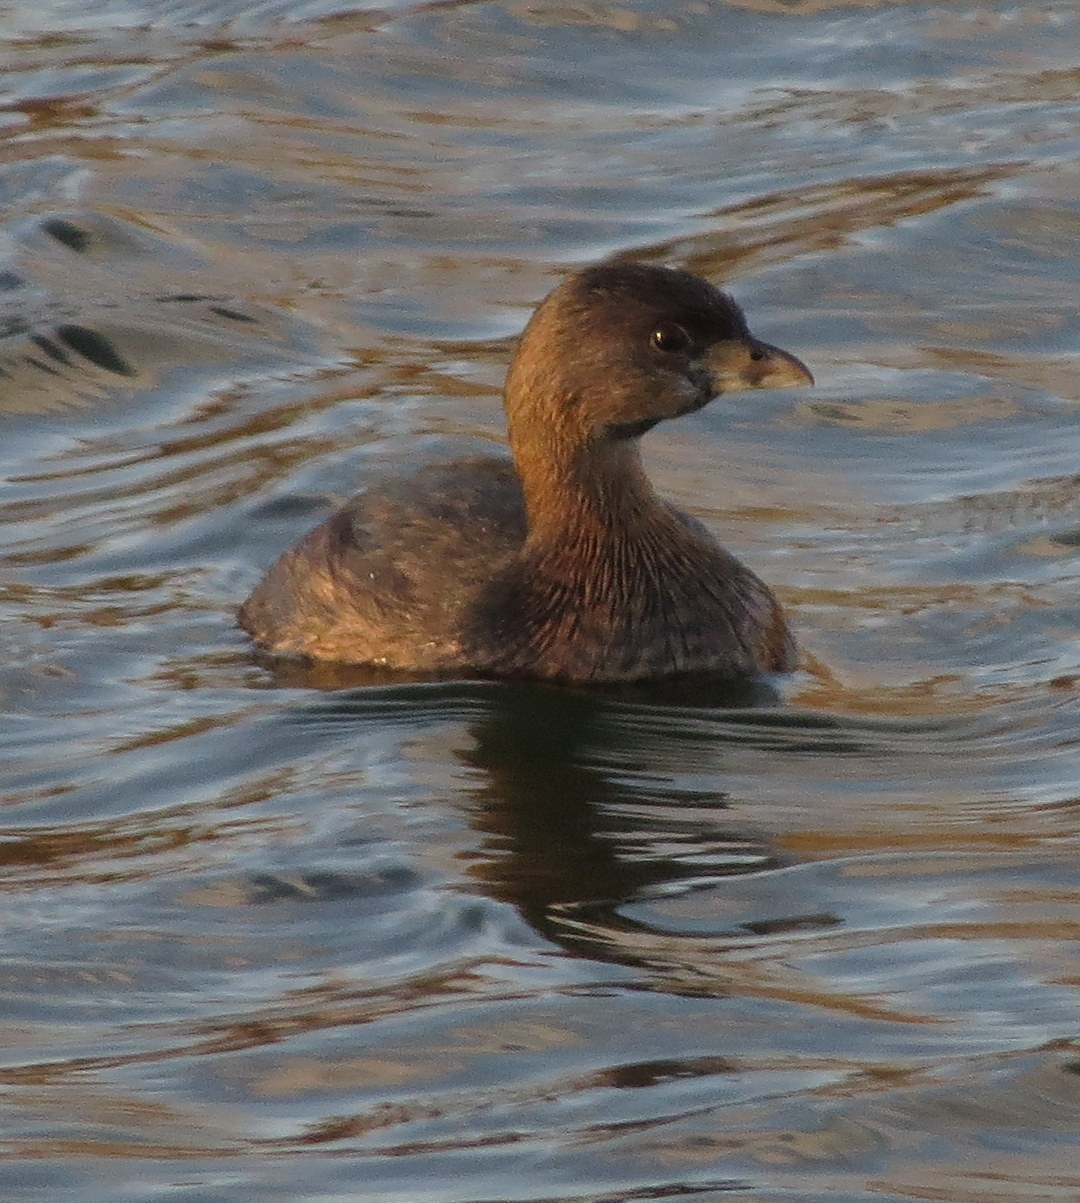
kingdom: Animalia
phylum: Chordata
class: Aves
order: Podicipediformes
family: Podicipedidae
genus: Podilymbus
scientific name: Podilymbus podiceps
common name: Pied-billed grebe
